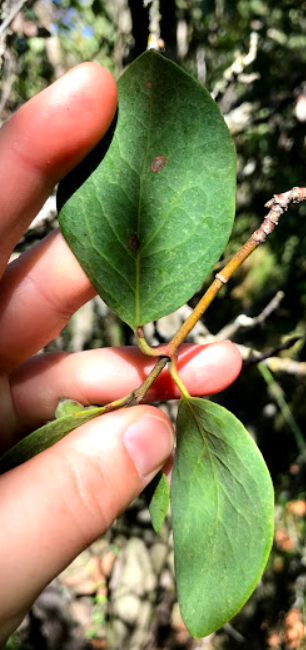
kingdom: Plantae
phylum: Tracheophyta
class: Magnoliopsida
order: Garryales
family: Garryaceae
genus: Garrya
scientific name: Garrya flavescens
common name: Ashy silk-tassel
